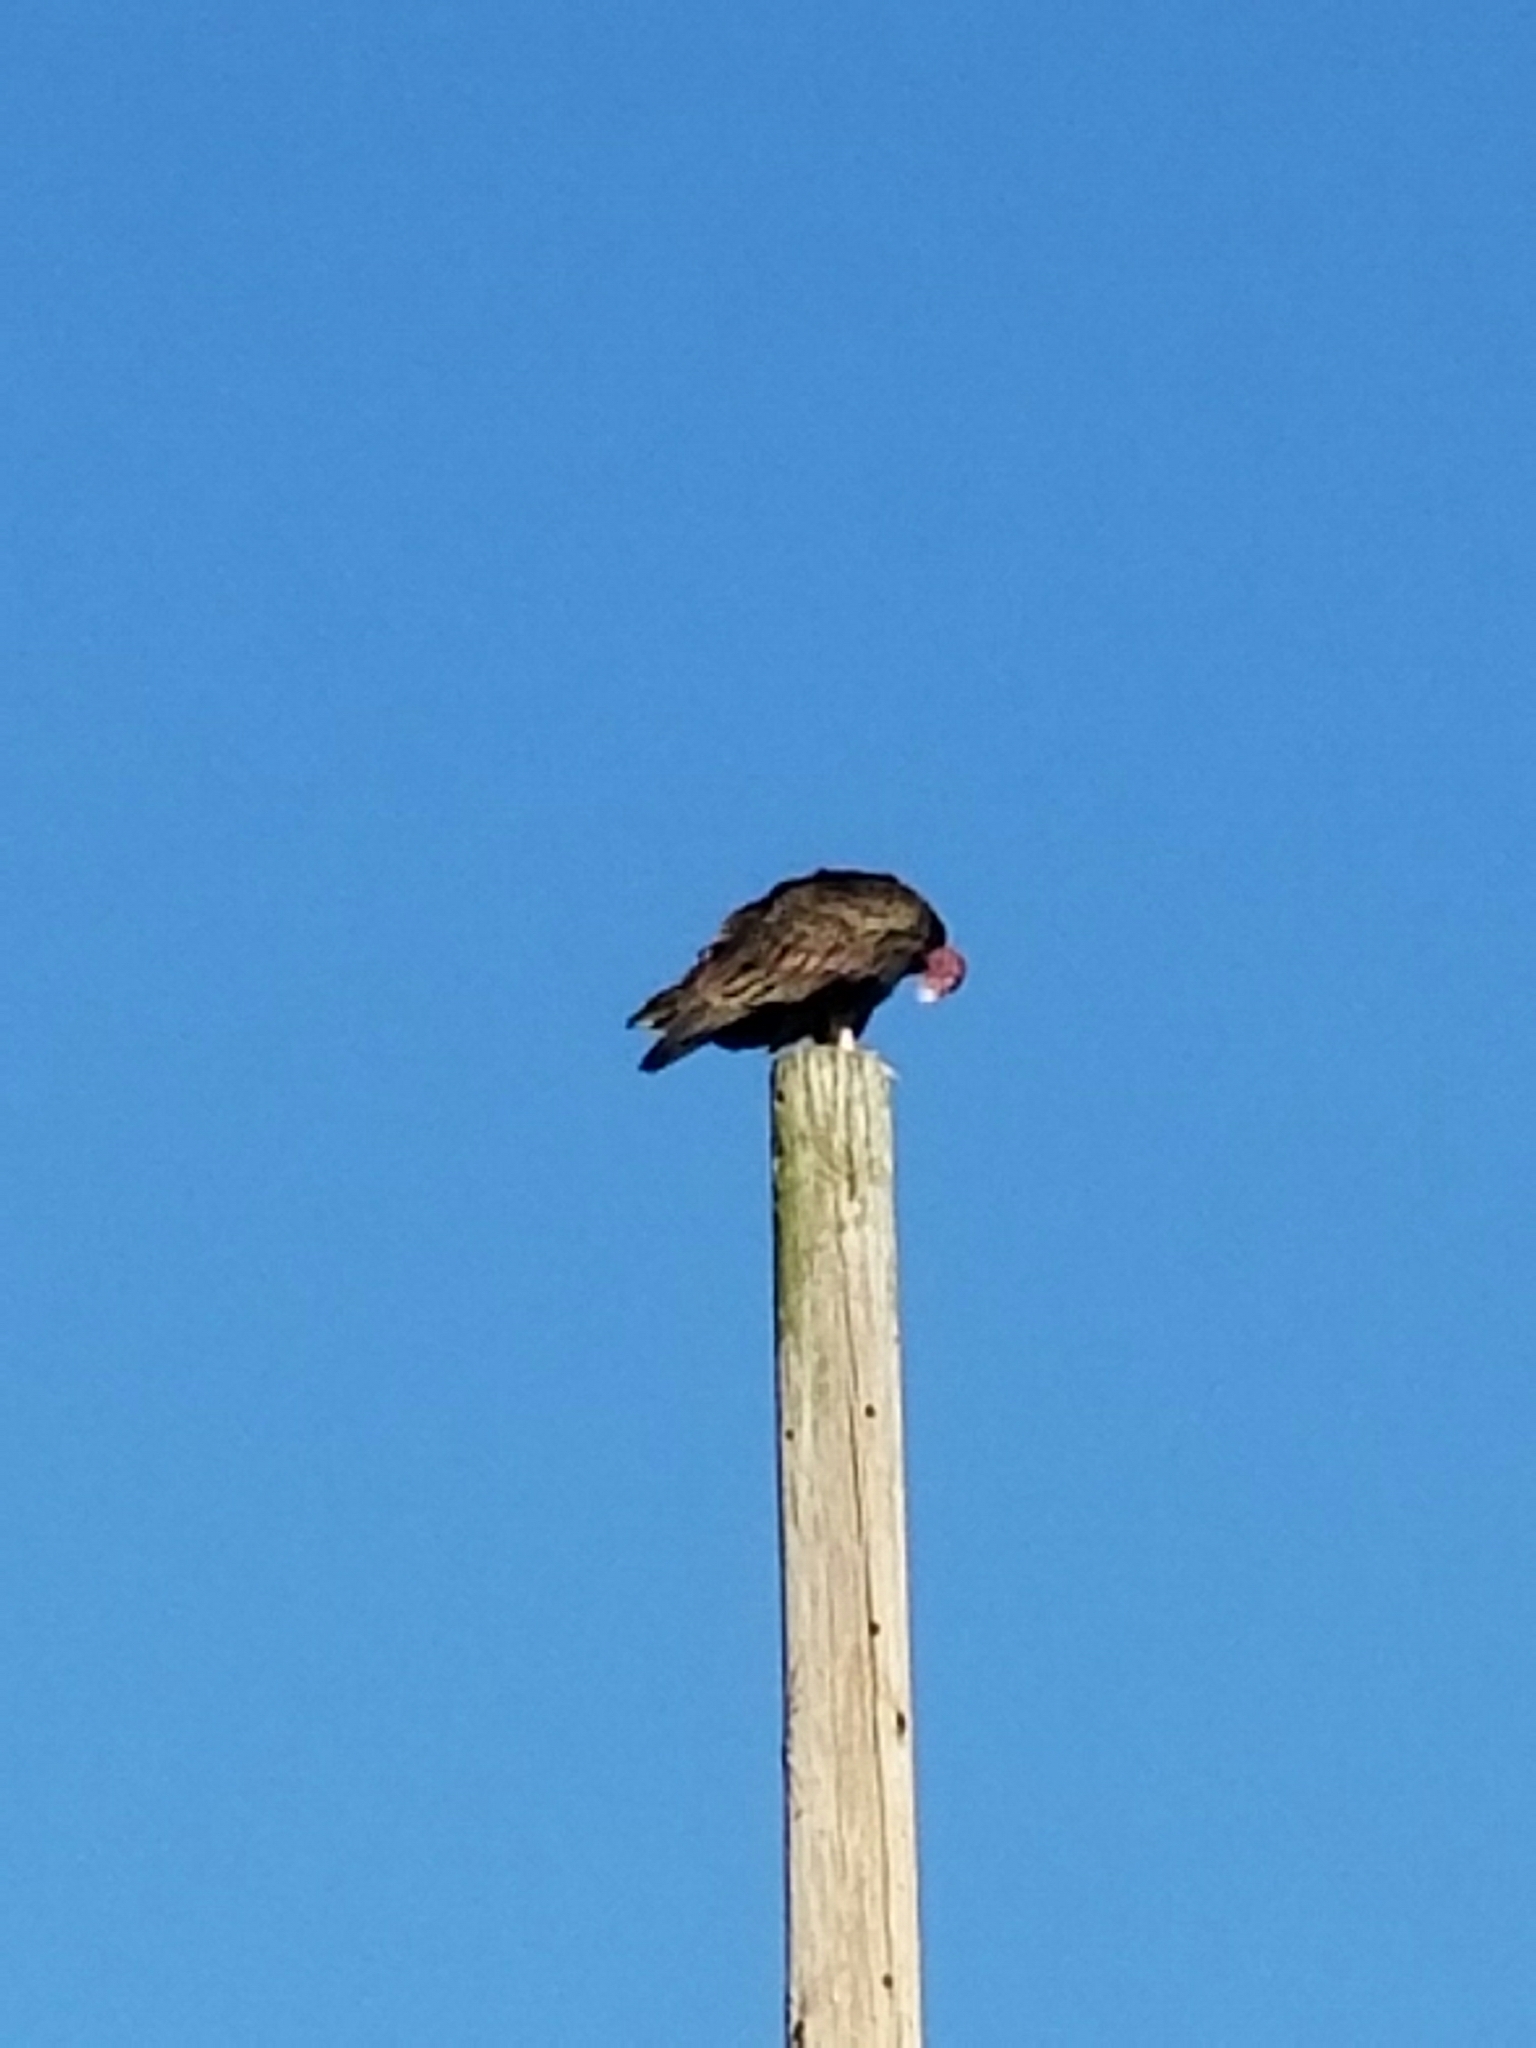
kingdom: Animalia
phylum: Chordata
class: Aves
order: Accipitriformes
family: Cathartidae
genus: Cathartes
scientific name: Cathartes aura
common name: Turkey vulture
